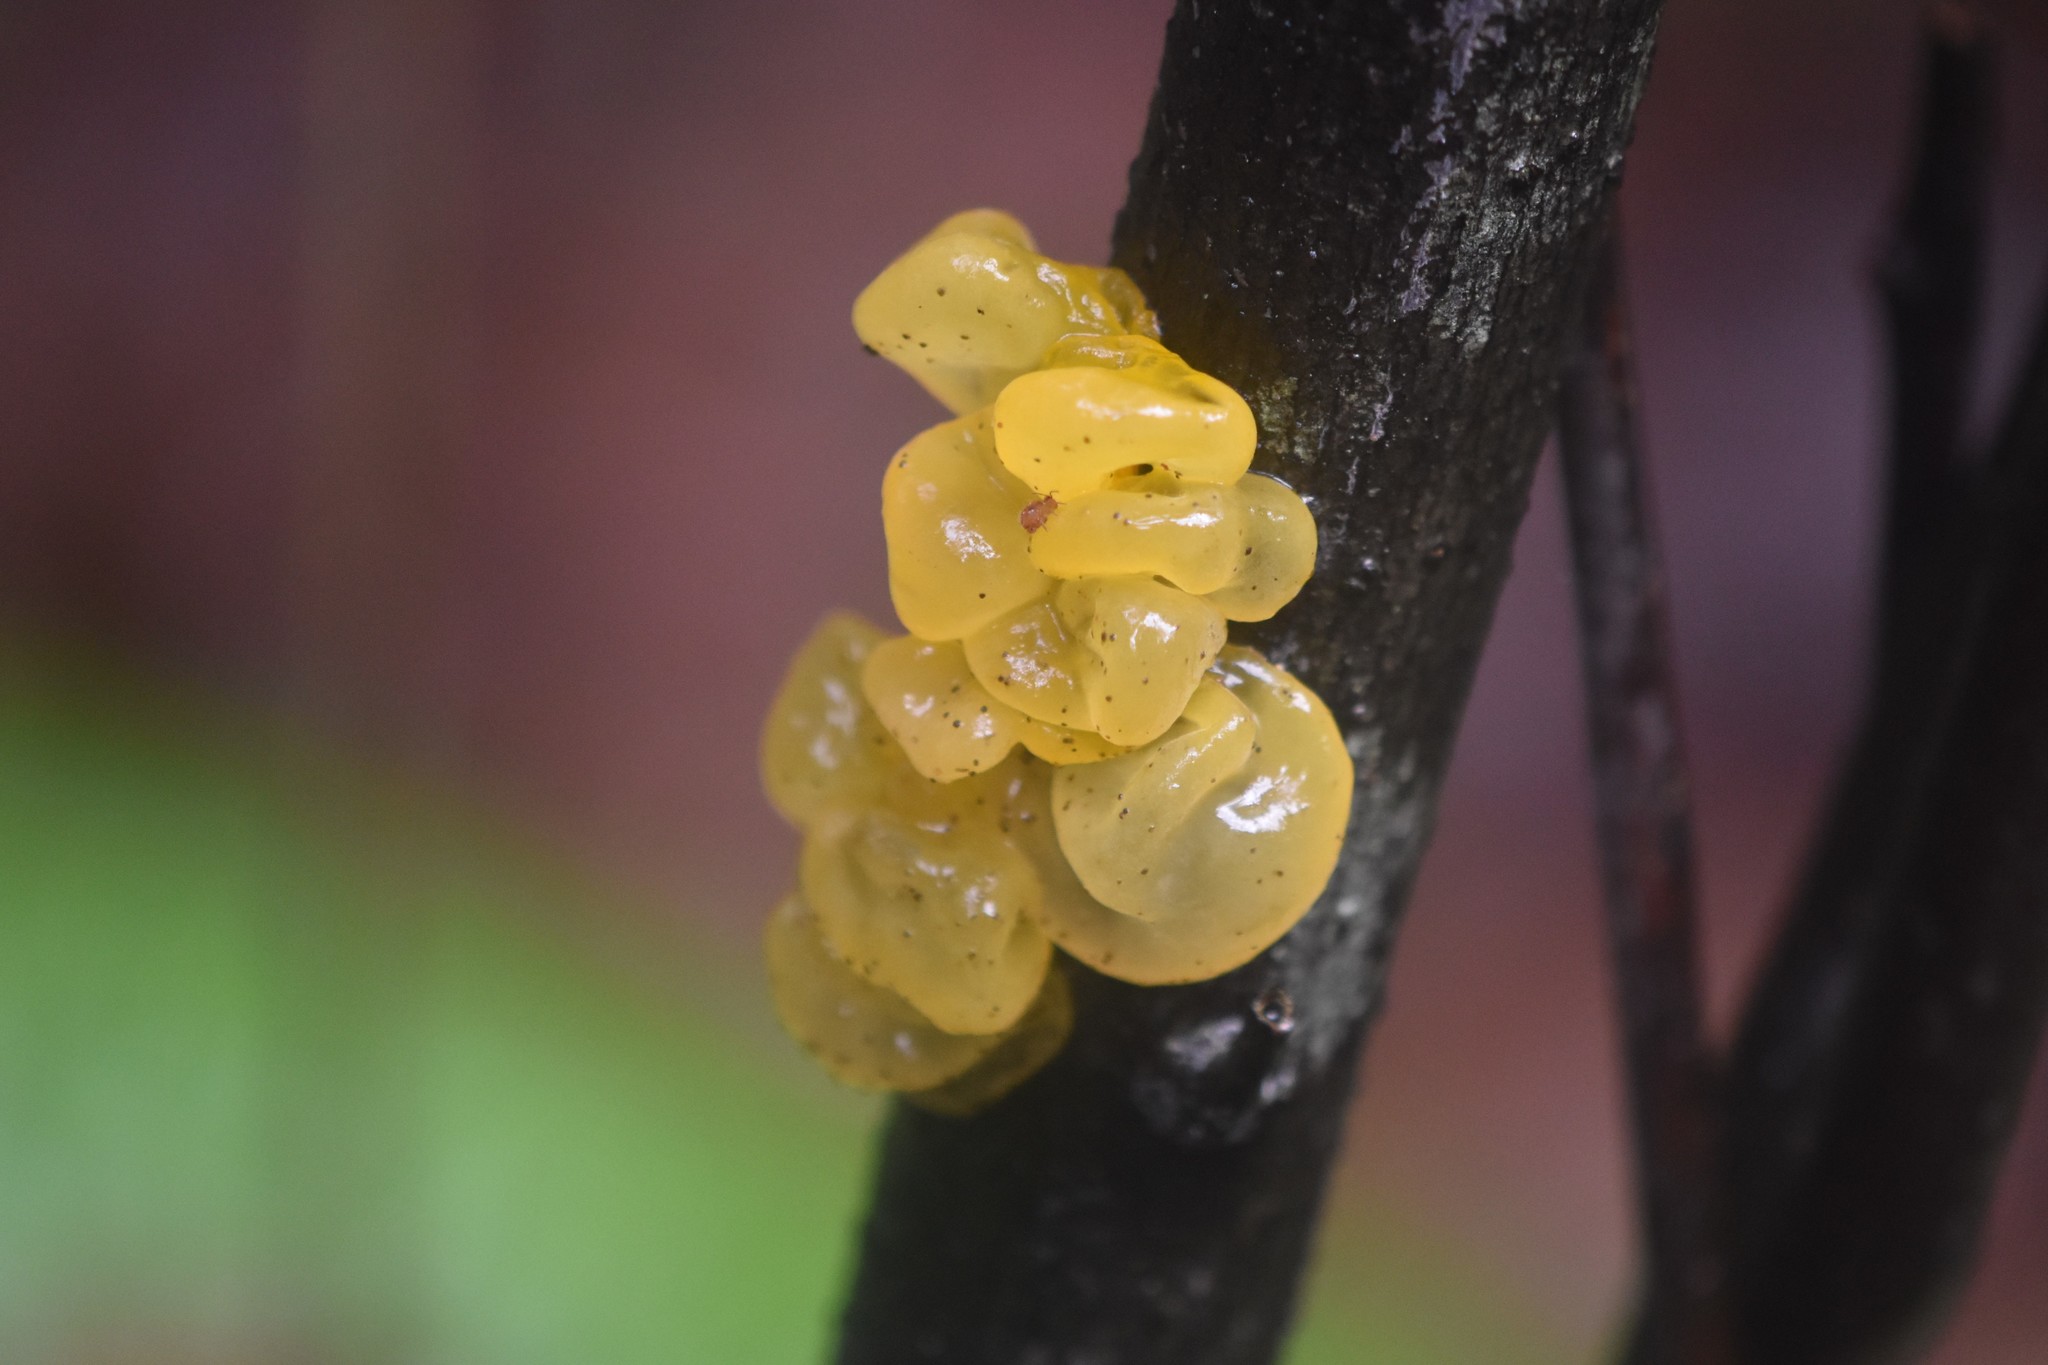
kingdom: Fungi
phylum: Basidiomycota
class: Tremellomycetes
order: Tremellales
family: Tremellaceae
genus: Tremella
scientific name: Tremella mesenterica
